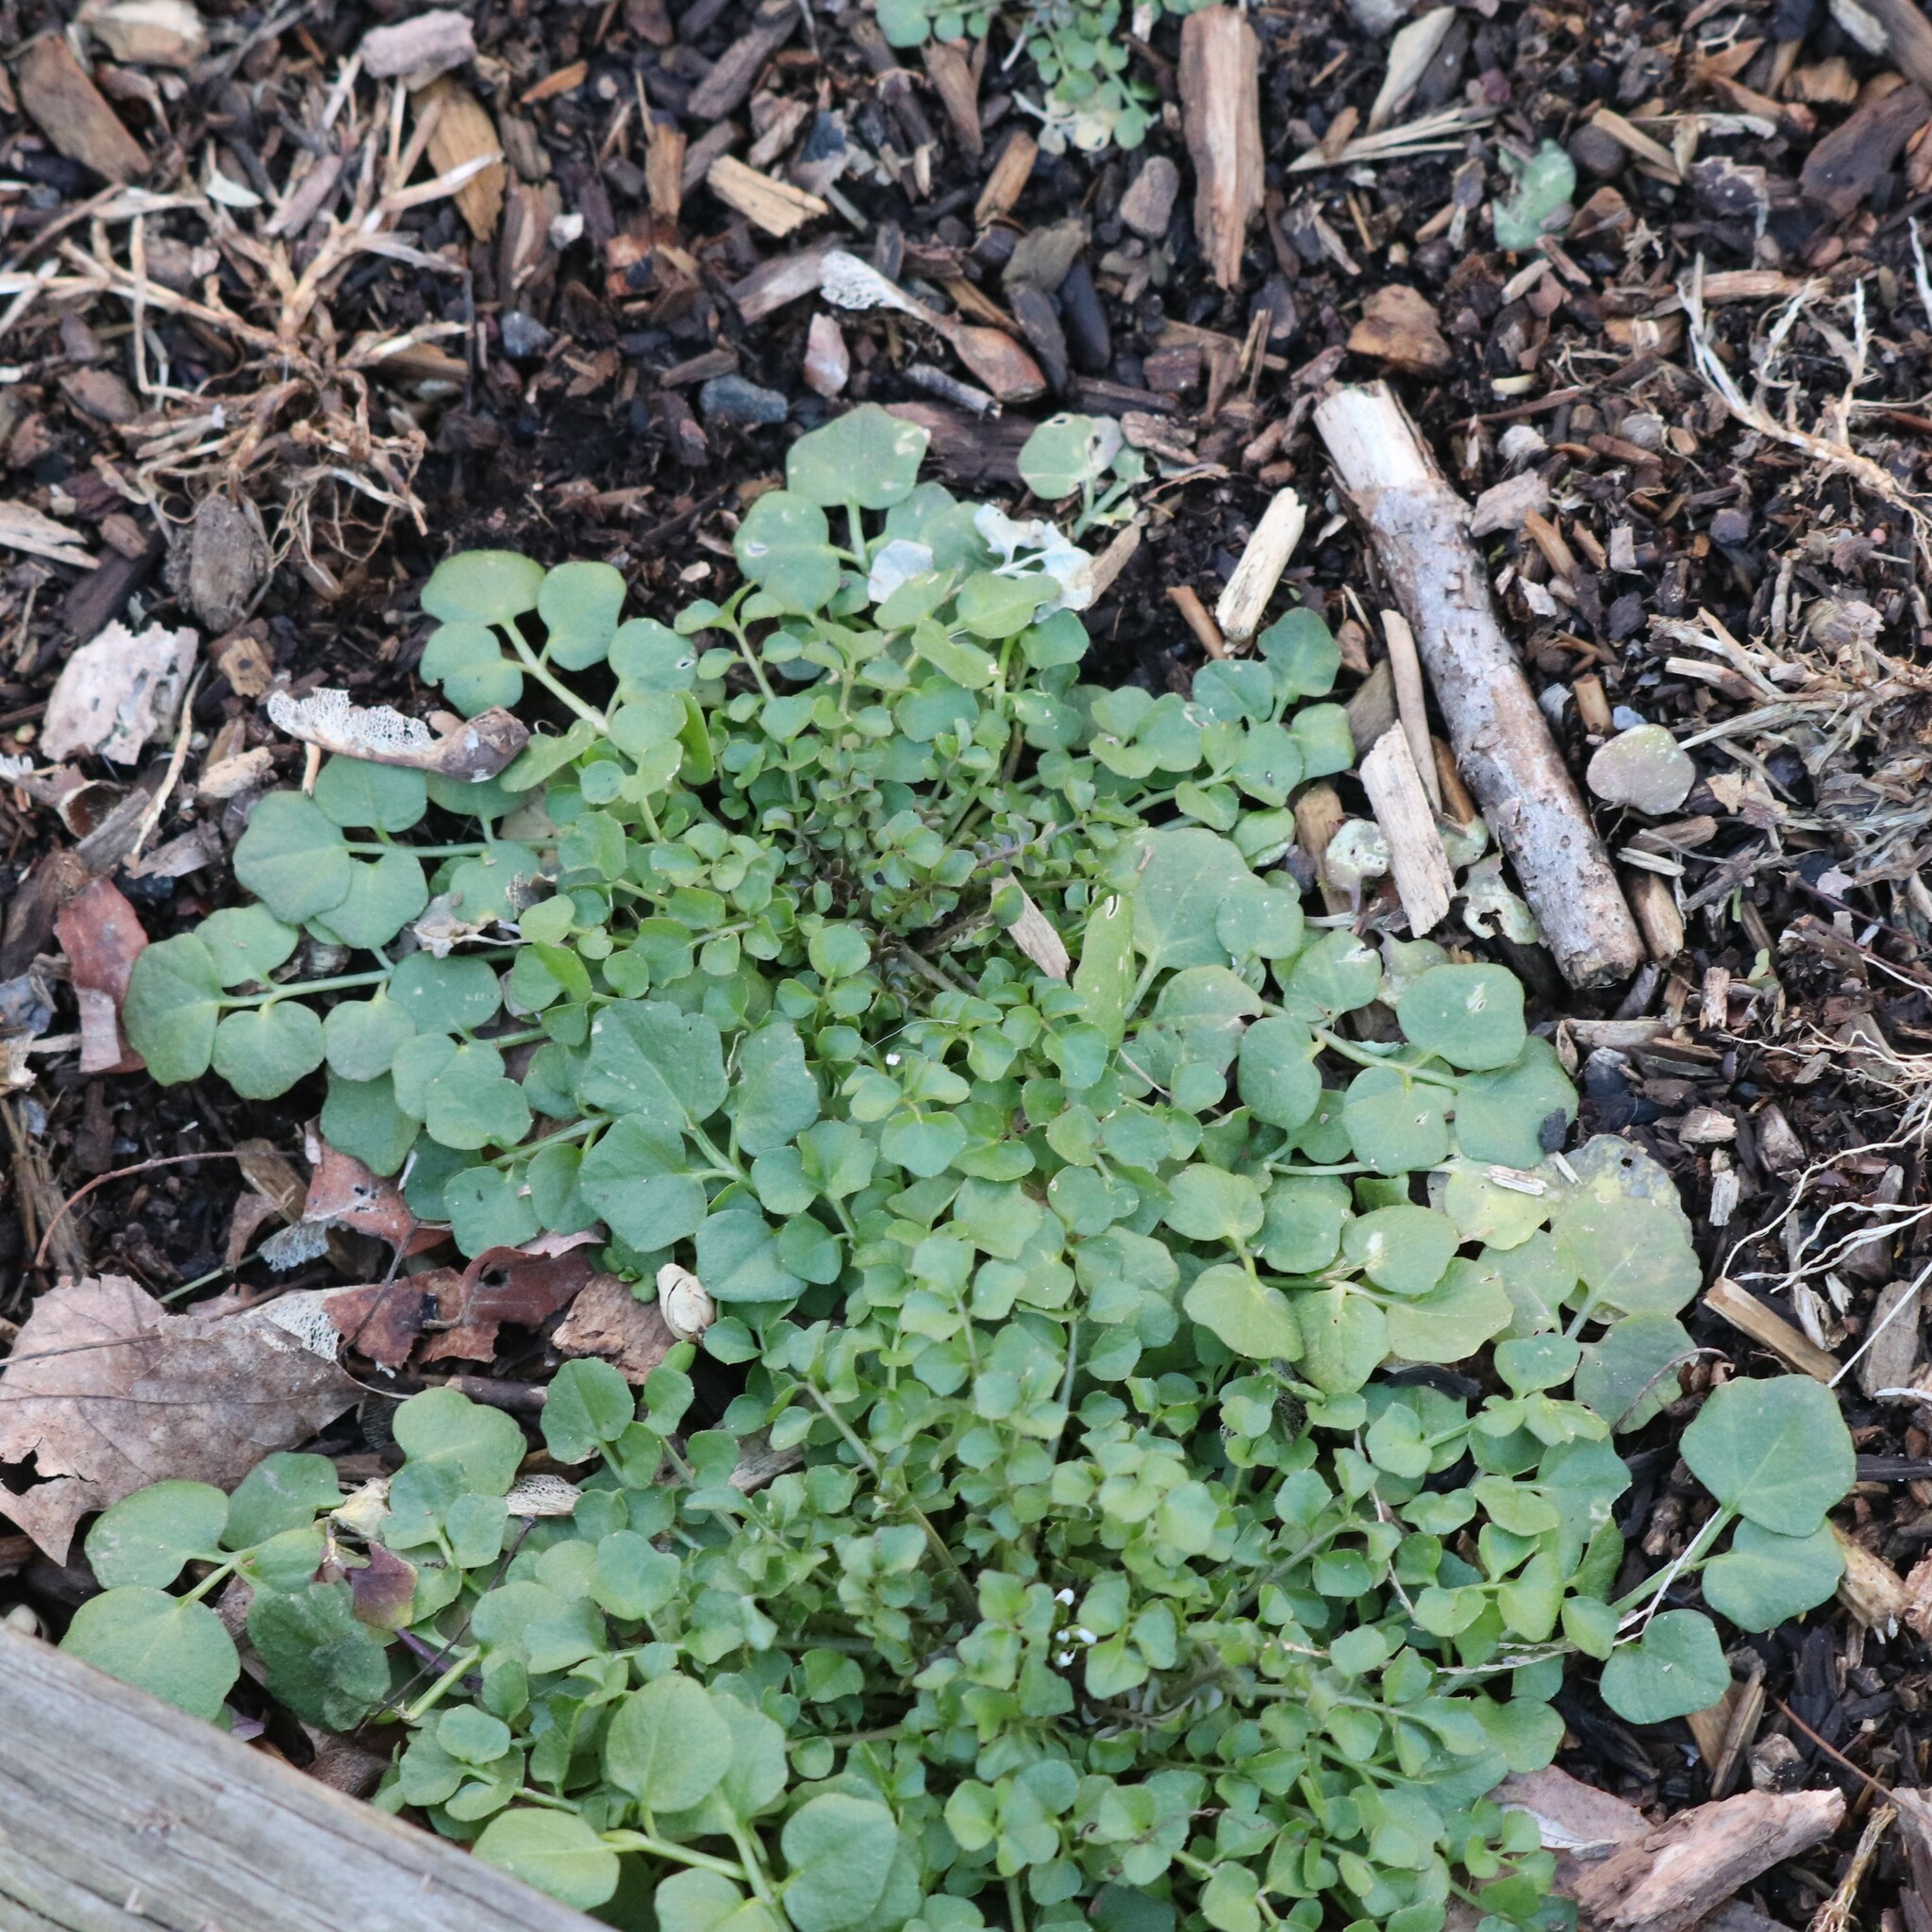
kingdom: Plantae
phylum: Tracheophyta
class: Magnoliopsida
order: Brassicales
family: Brassicaceae
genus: Cardamine
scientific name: Cardamine hirsuta
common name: Hairy bittercress
